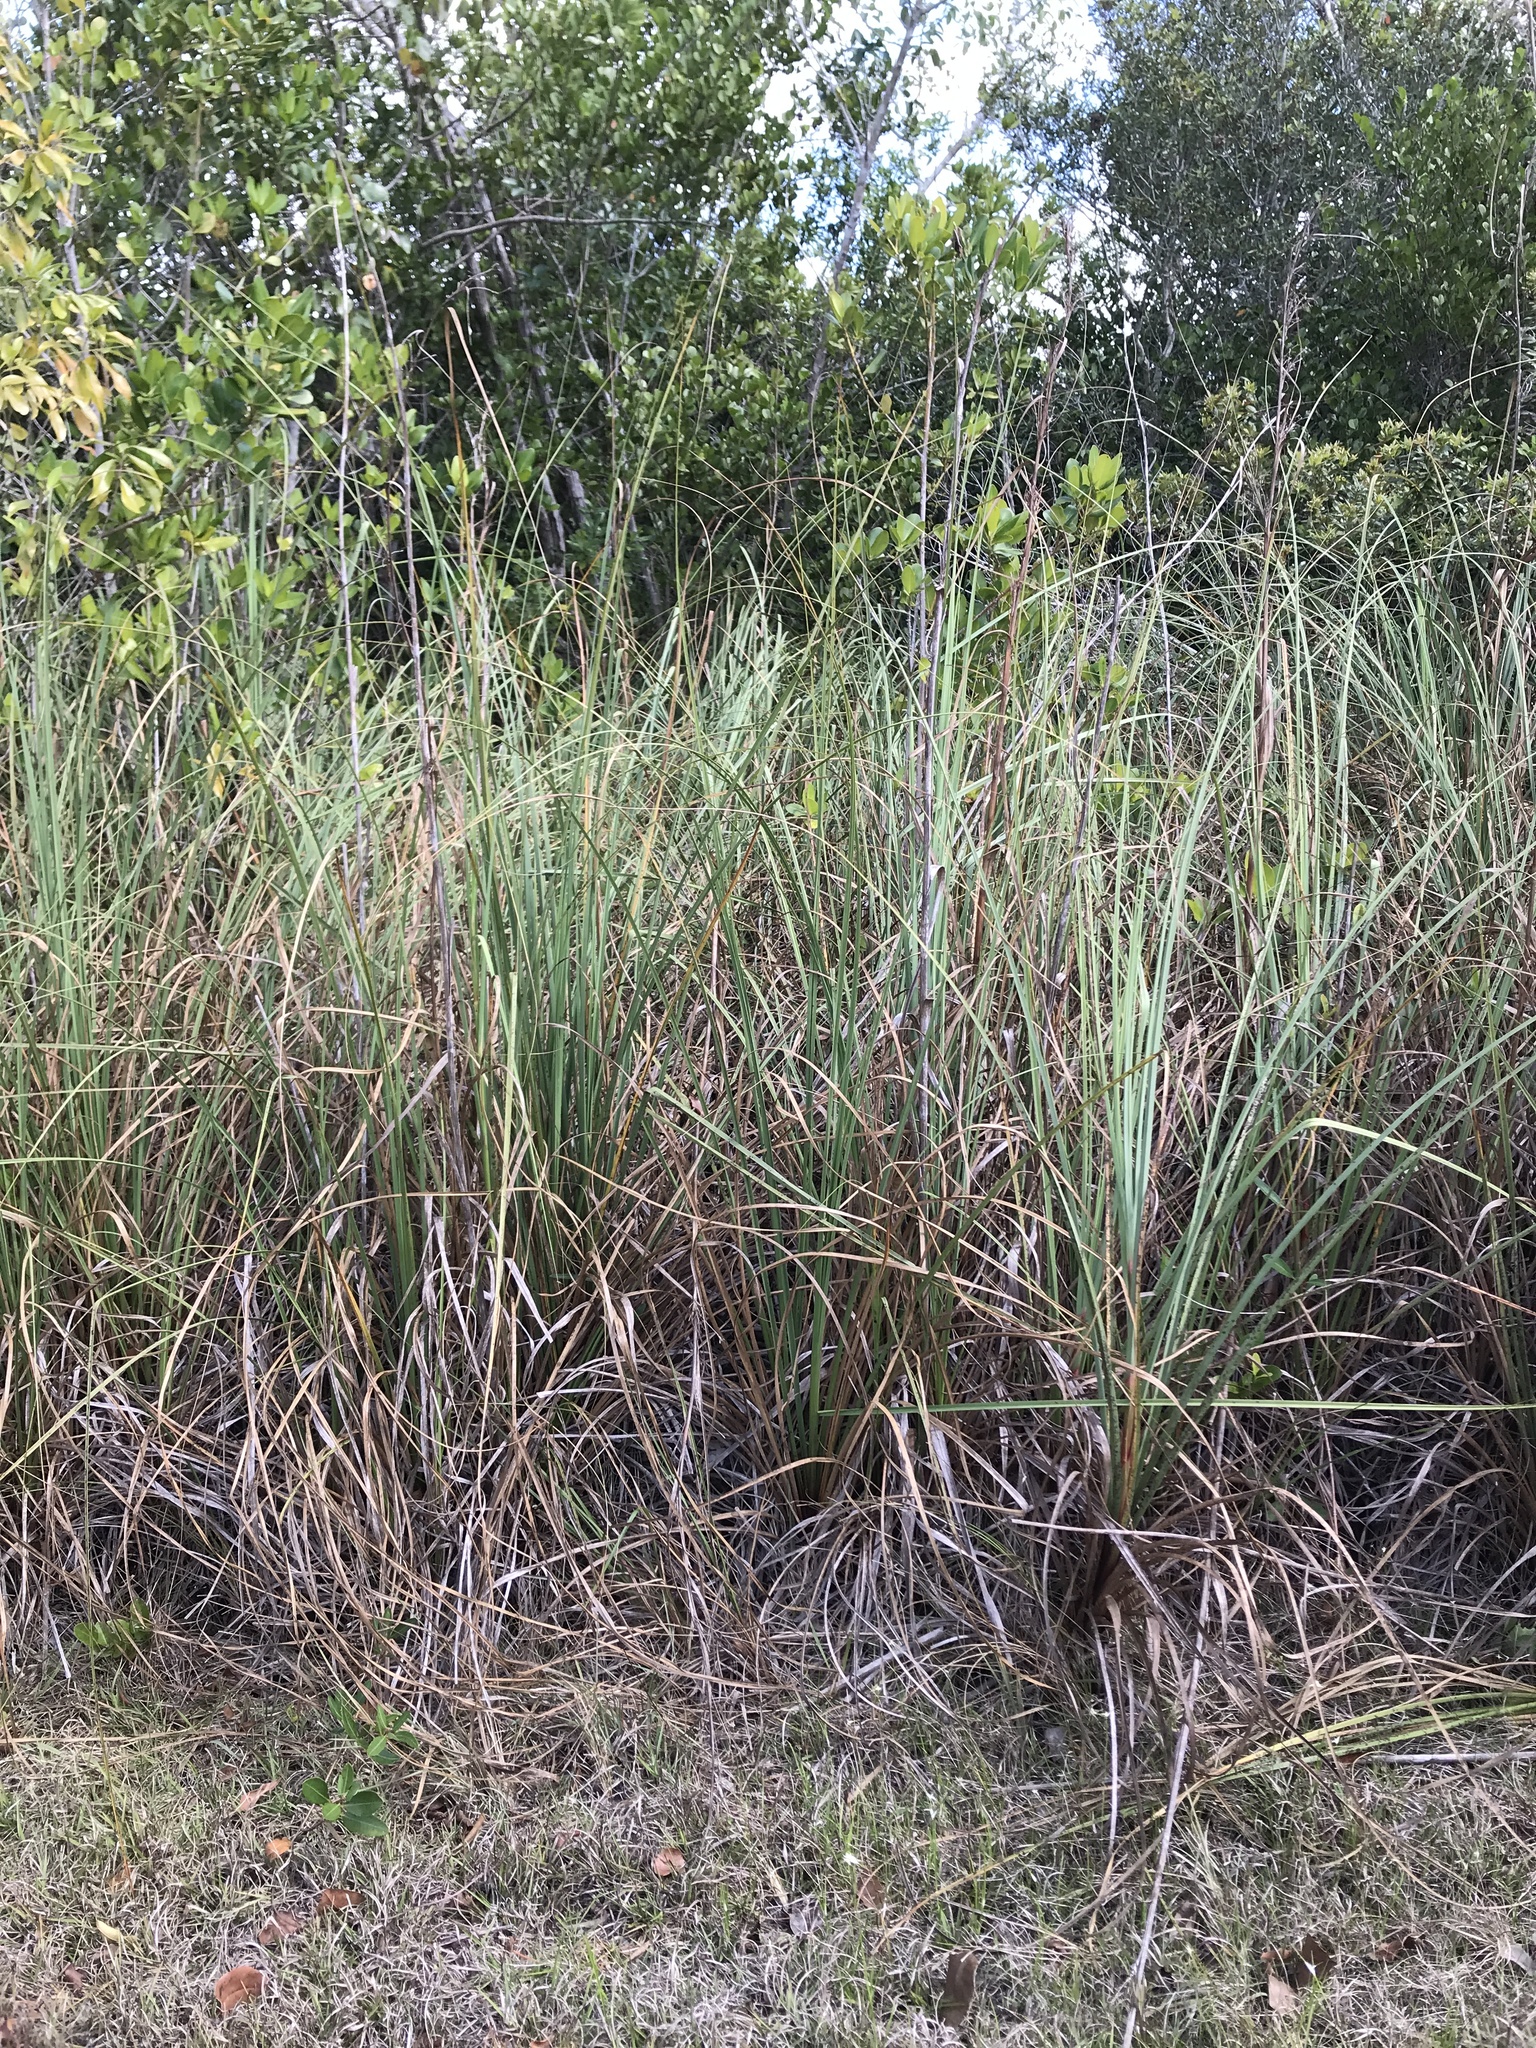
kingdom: Plantae
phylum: Tracheophyta
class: Liliopsida
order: Poales
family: Cyperaceae
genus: Cladium
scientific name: Cladium mariscus
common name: Great fen-sedge
